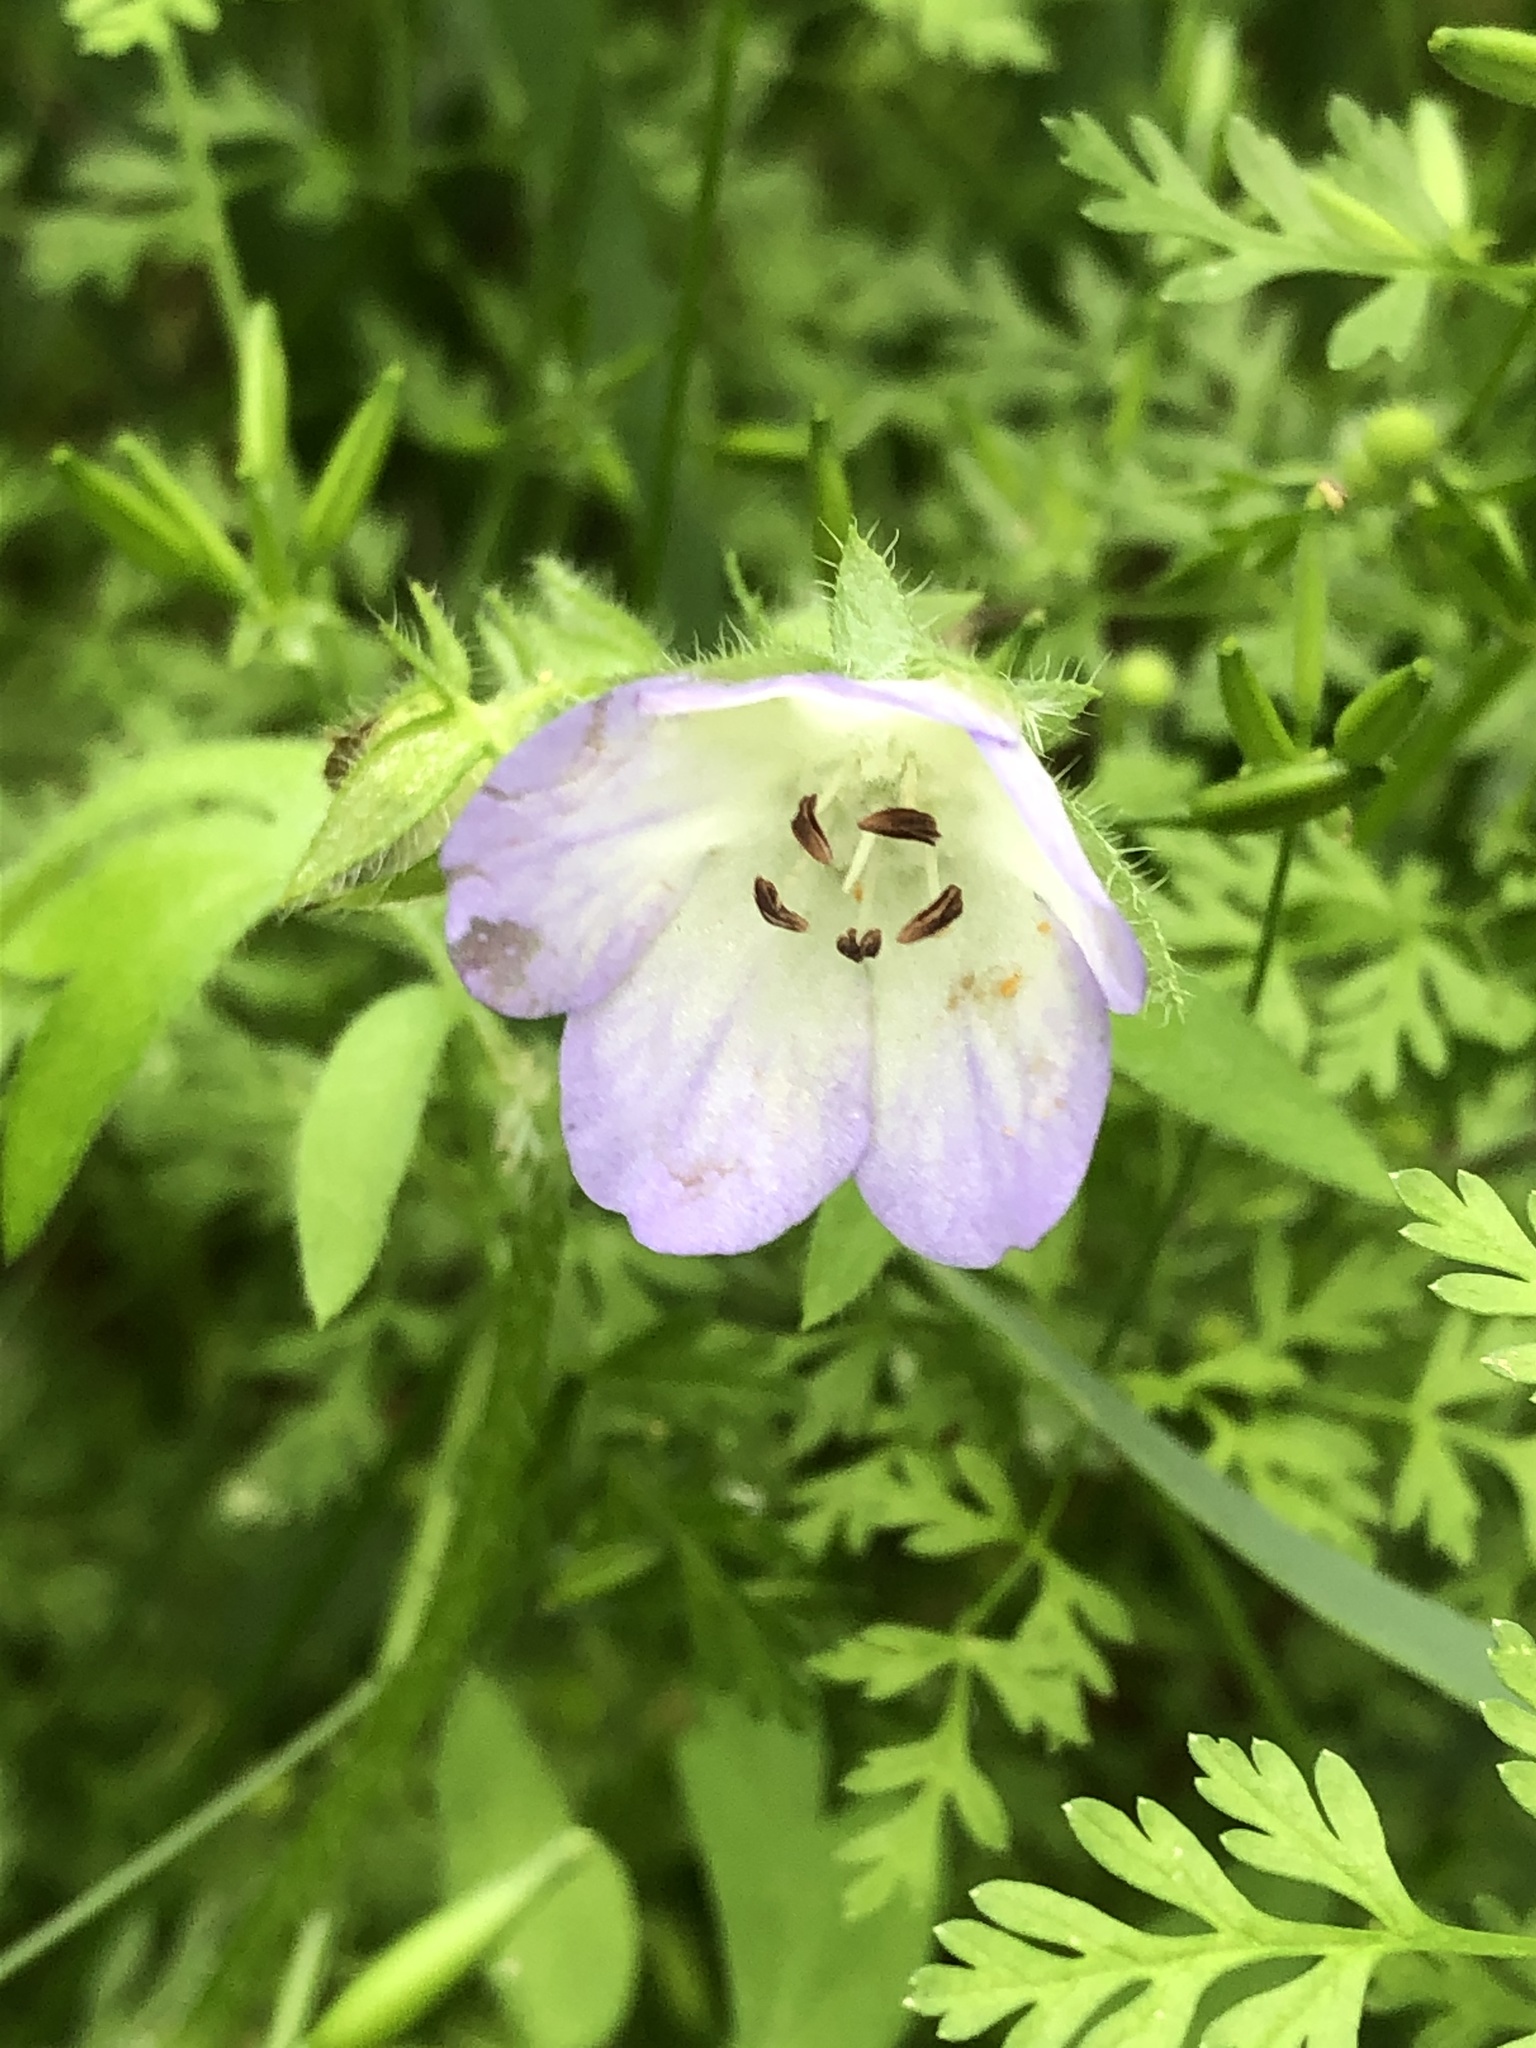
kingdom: Plantae
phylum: Tracheophyta
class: Magnoliopsida
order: Boraginales
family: Hydrophyllaceae
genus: Nemophila
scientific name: Nemophila phacelioides
